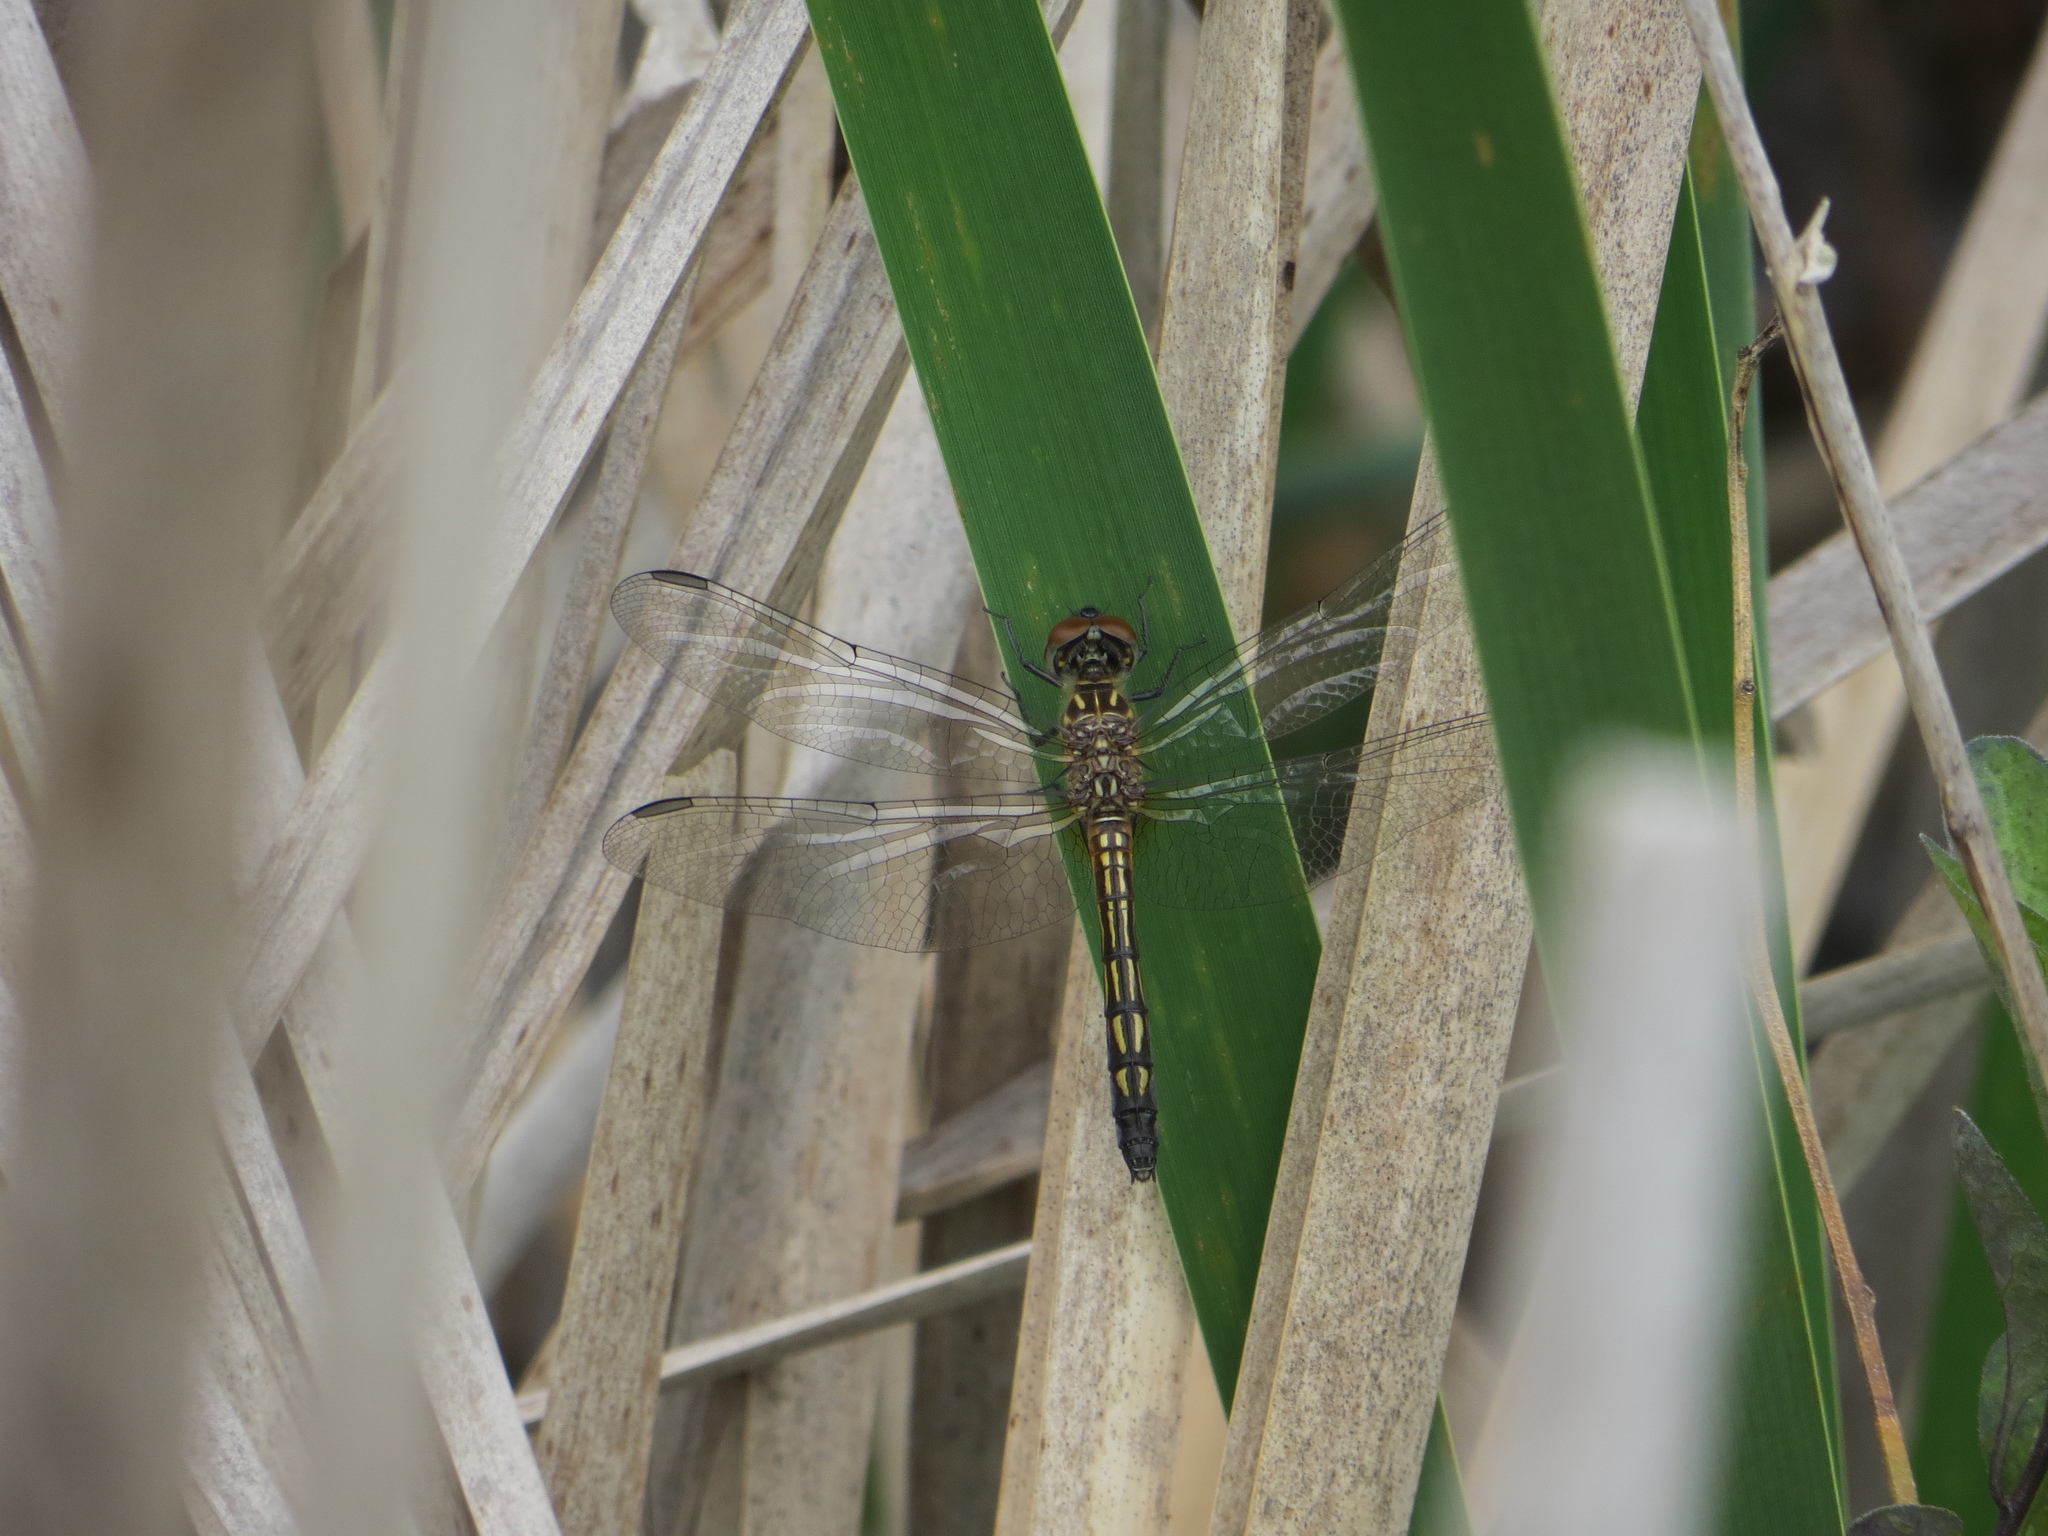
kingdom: Animalia
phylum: Arthropoda
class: Insecta
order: Odonata
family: Libellulidae
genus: Pachydiplax
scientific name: Pachydiplax longipennis
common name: Blue dasher
